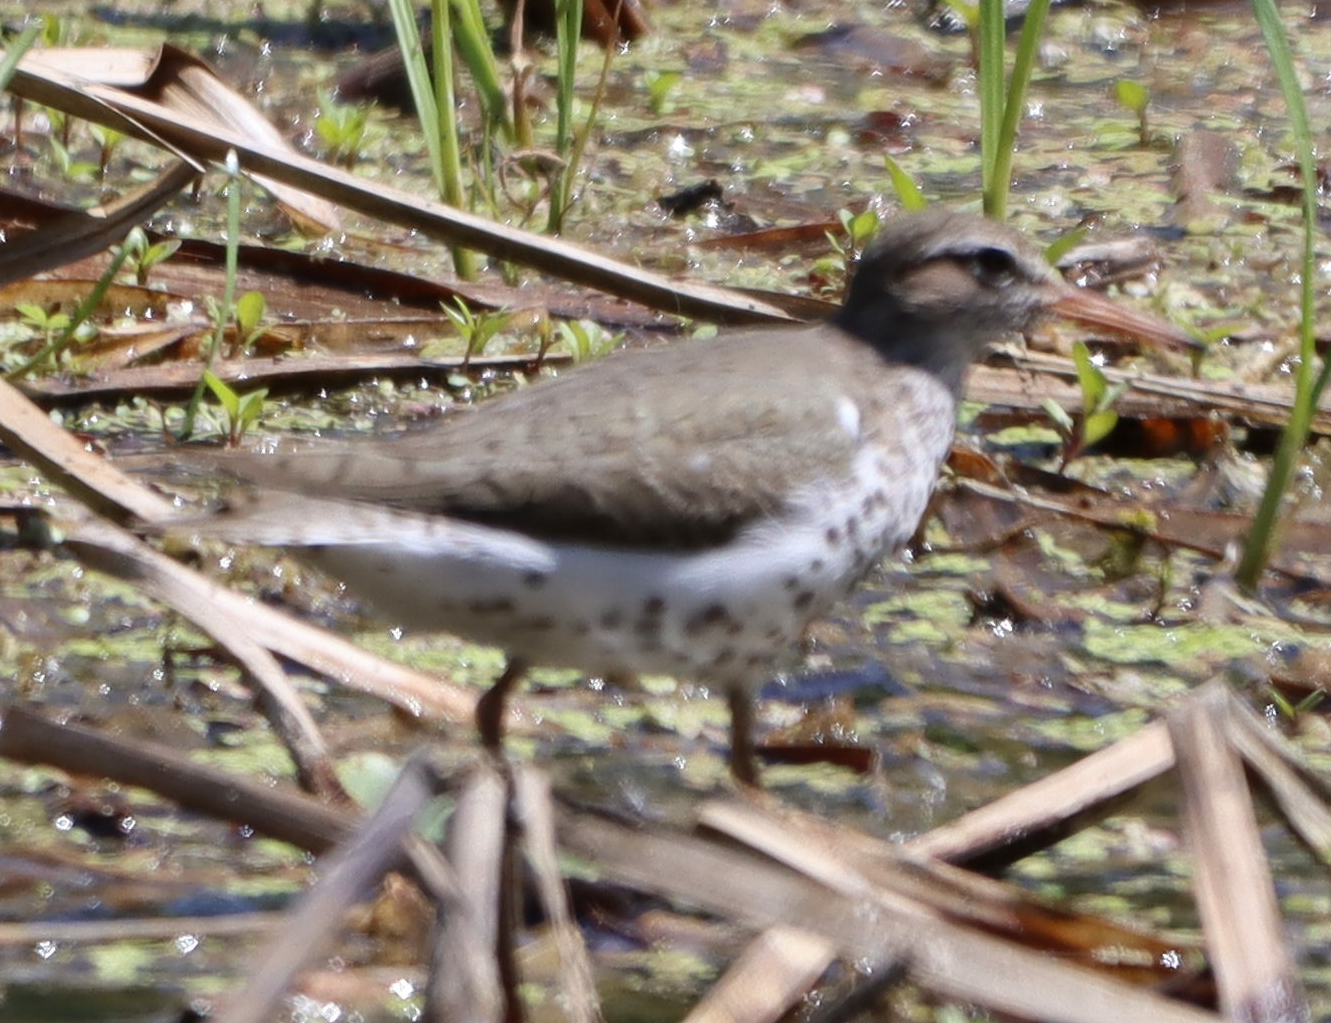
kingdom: Animalia
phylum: Chordata
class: Aves
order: Charadriiformes
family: Scolopacidae
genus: Actitis
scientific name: Actitis macularius
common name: Spotted sandpiper
